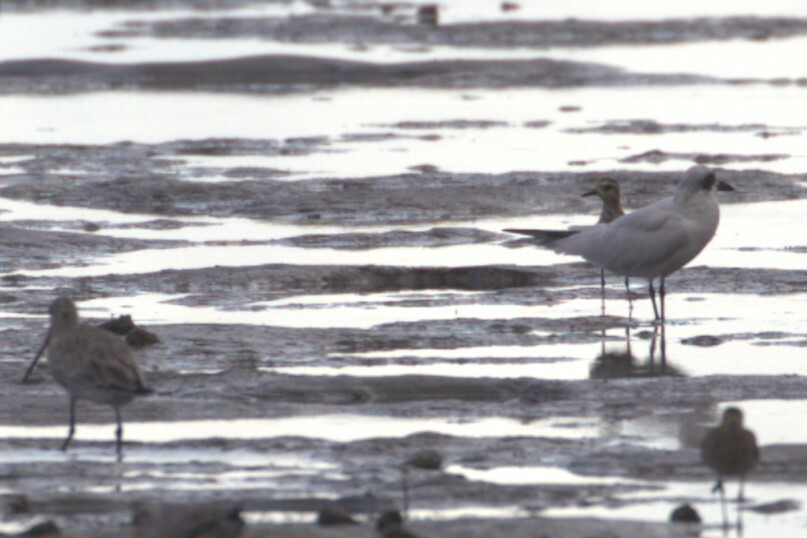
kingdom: Animalia
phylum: Chordata
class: Aves
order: Charadriiformes
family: Laridae
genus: Gelochelidon
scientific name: Gelochelidon macrotarsa
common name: Australian tern
